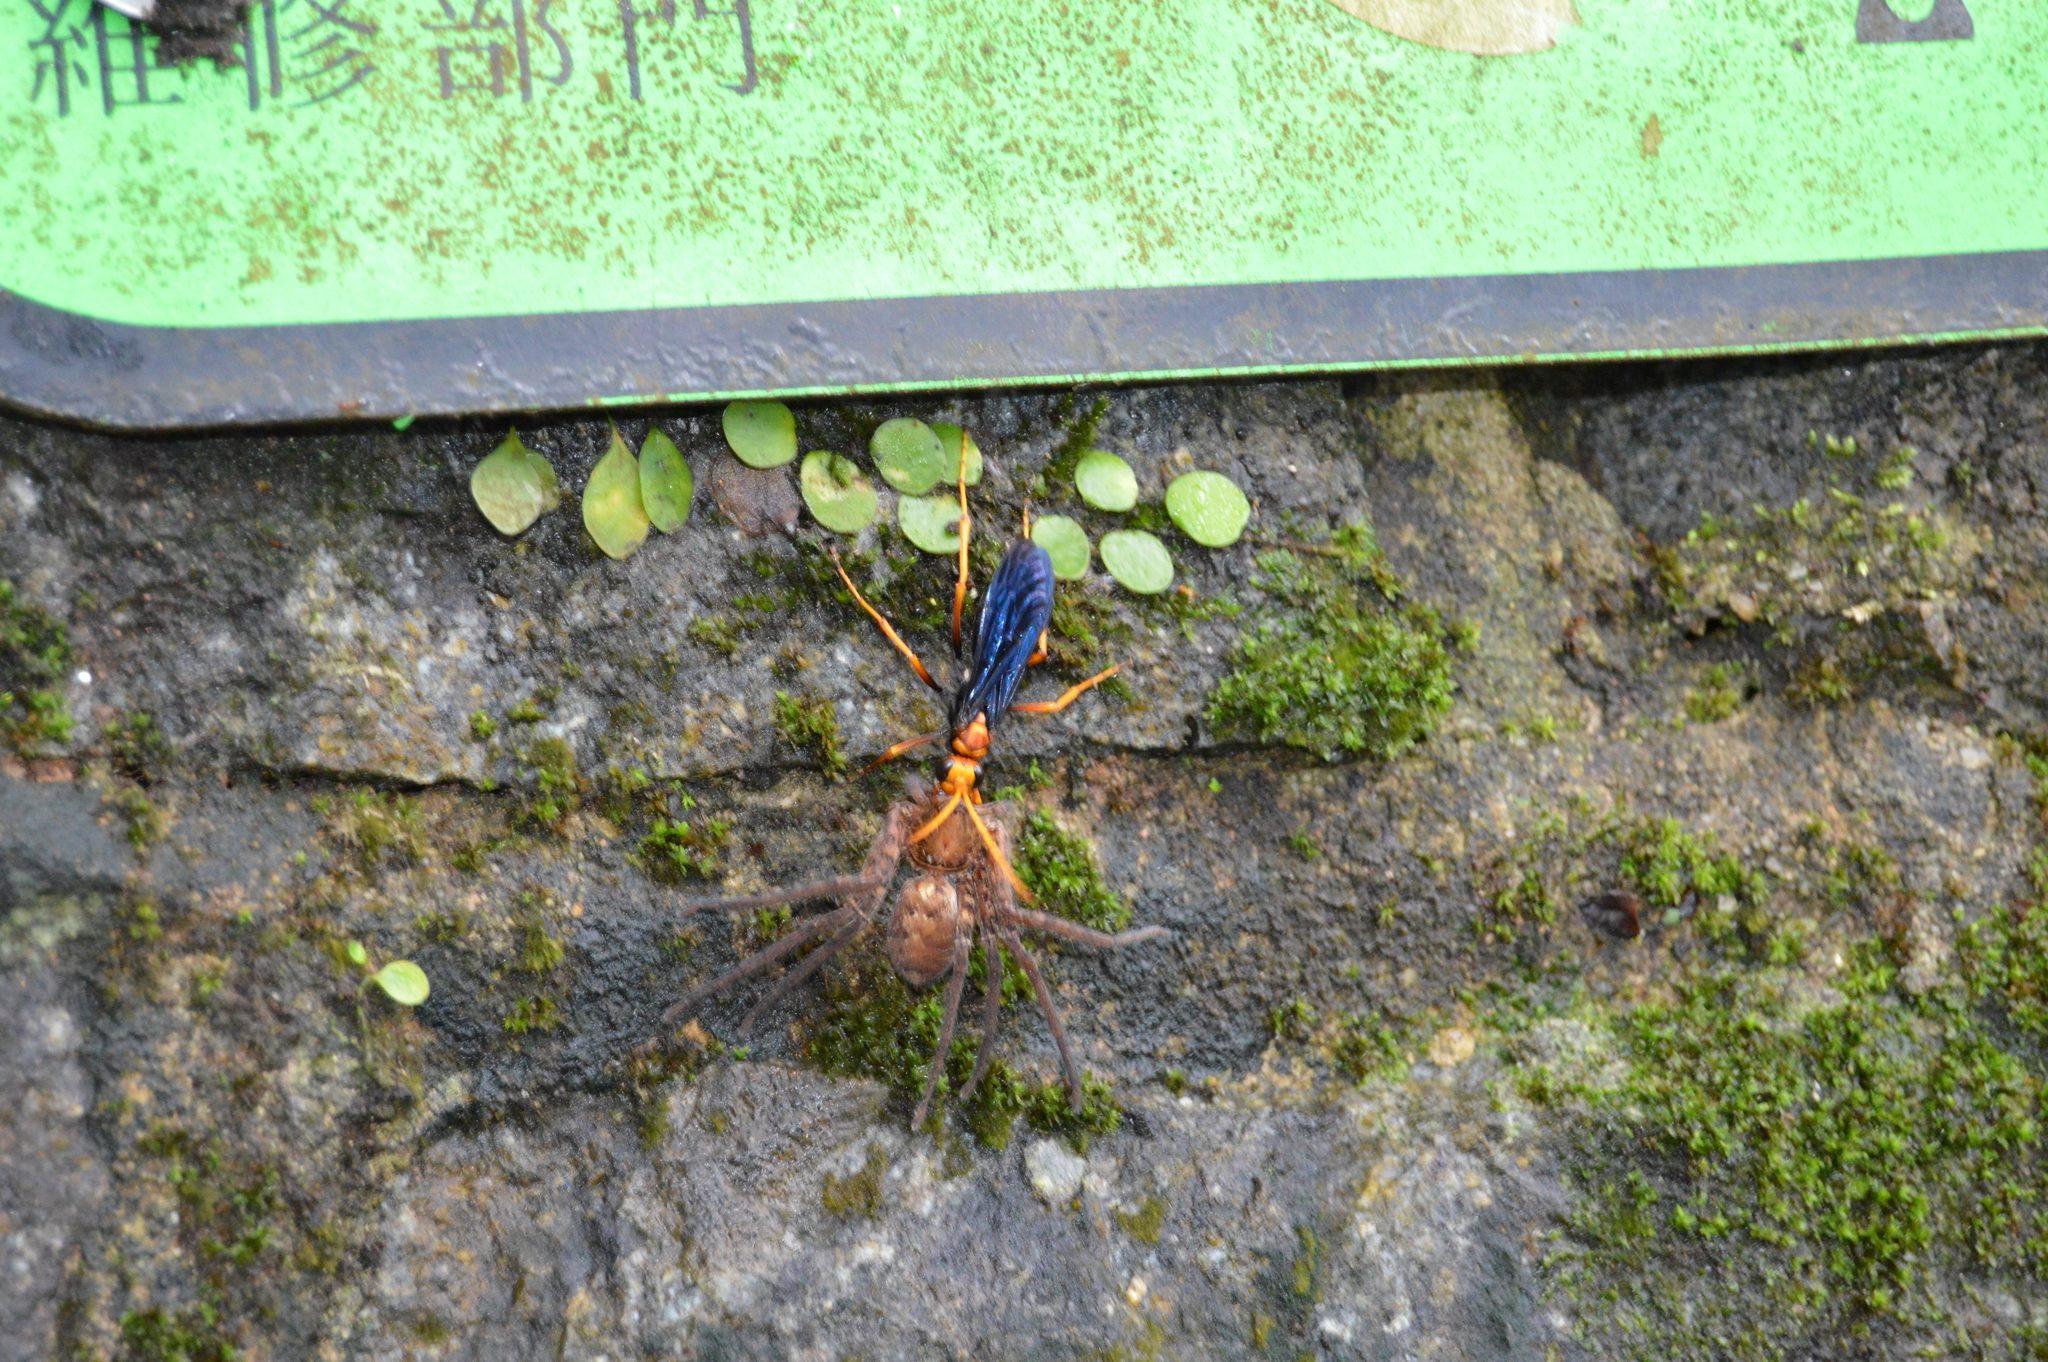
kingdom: Animalia
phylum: Arthropoda
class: Insecta
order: Hymenoptera
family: Pompilidae
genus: Cyphononyx
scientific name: Cyphononyx bipartitus
